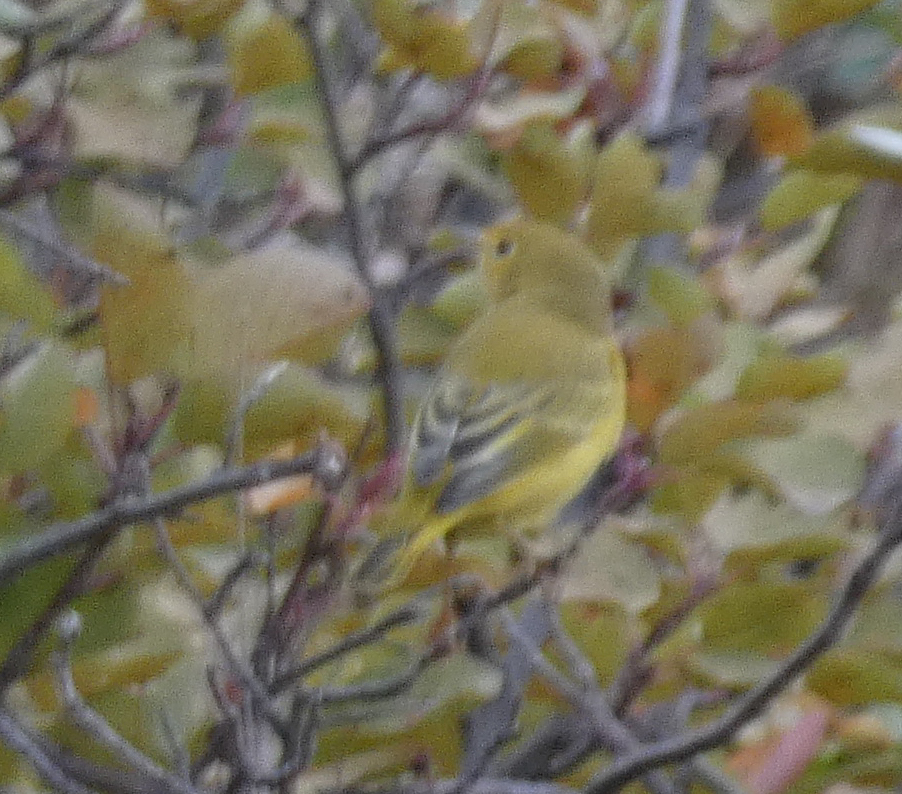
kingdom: Animalia
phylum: Chordata
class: Aves
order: Passeriformes
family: Parulidae
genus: Setophaga
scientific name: Setophaga petechia
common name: Yellow warbler
